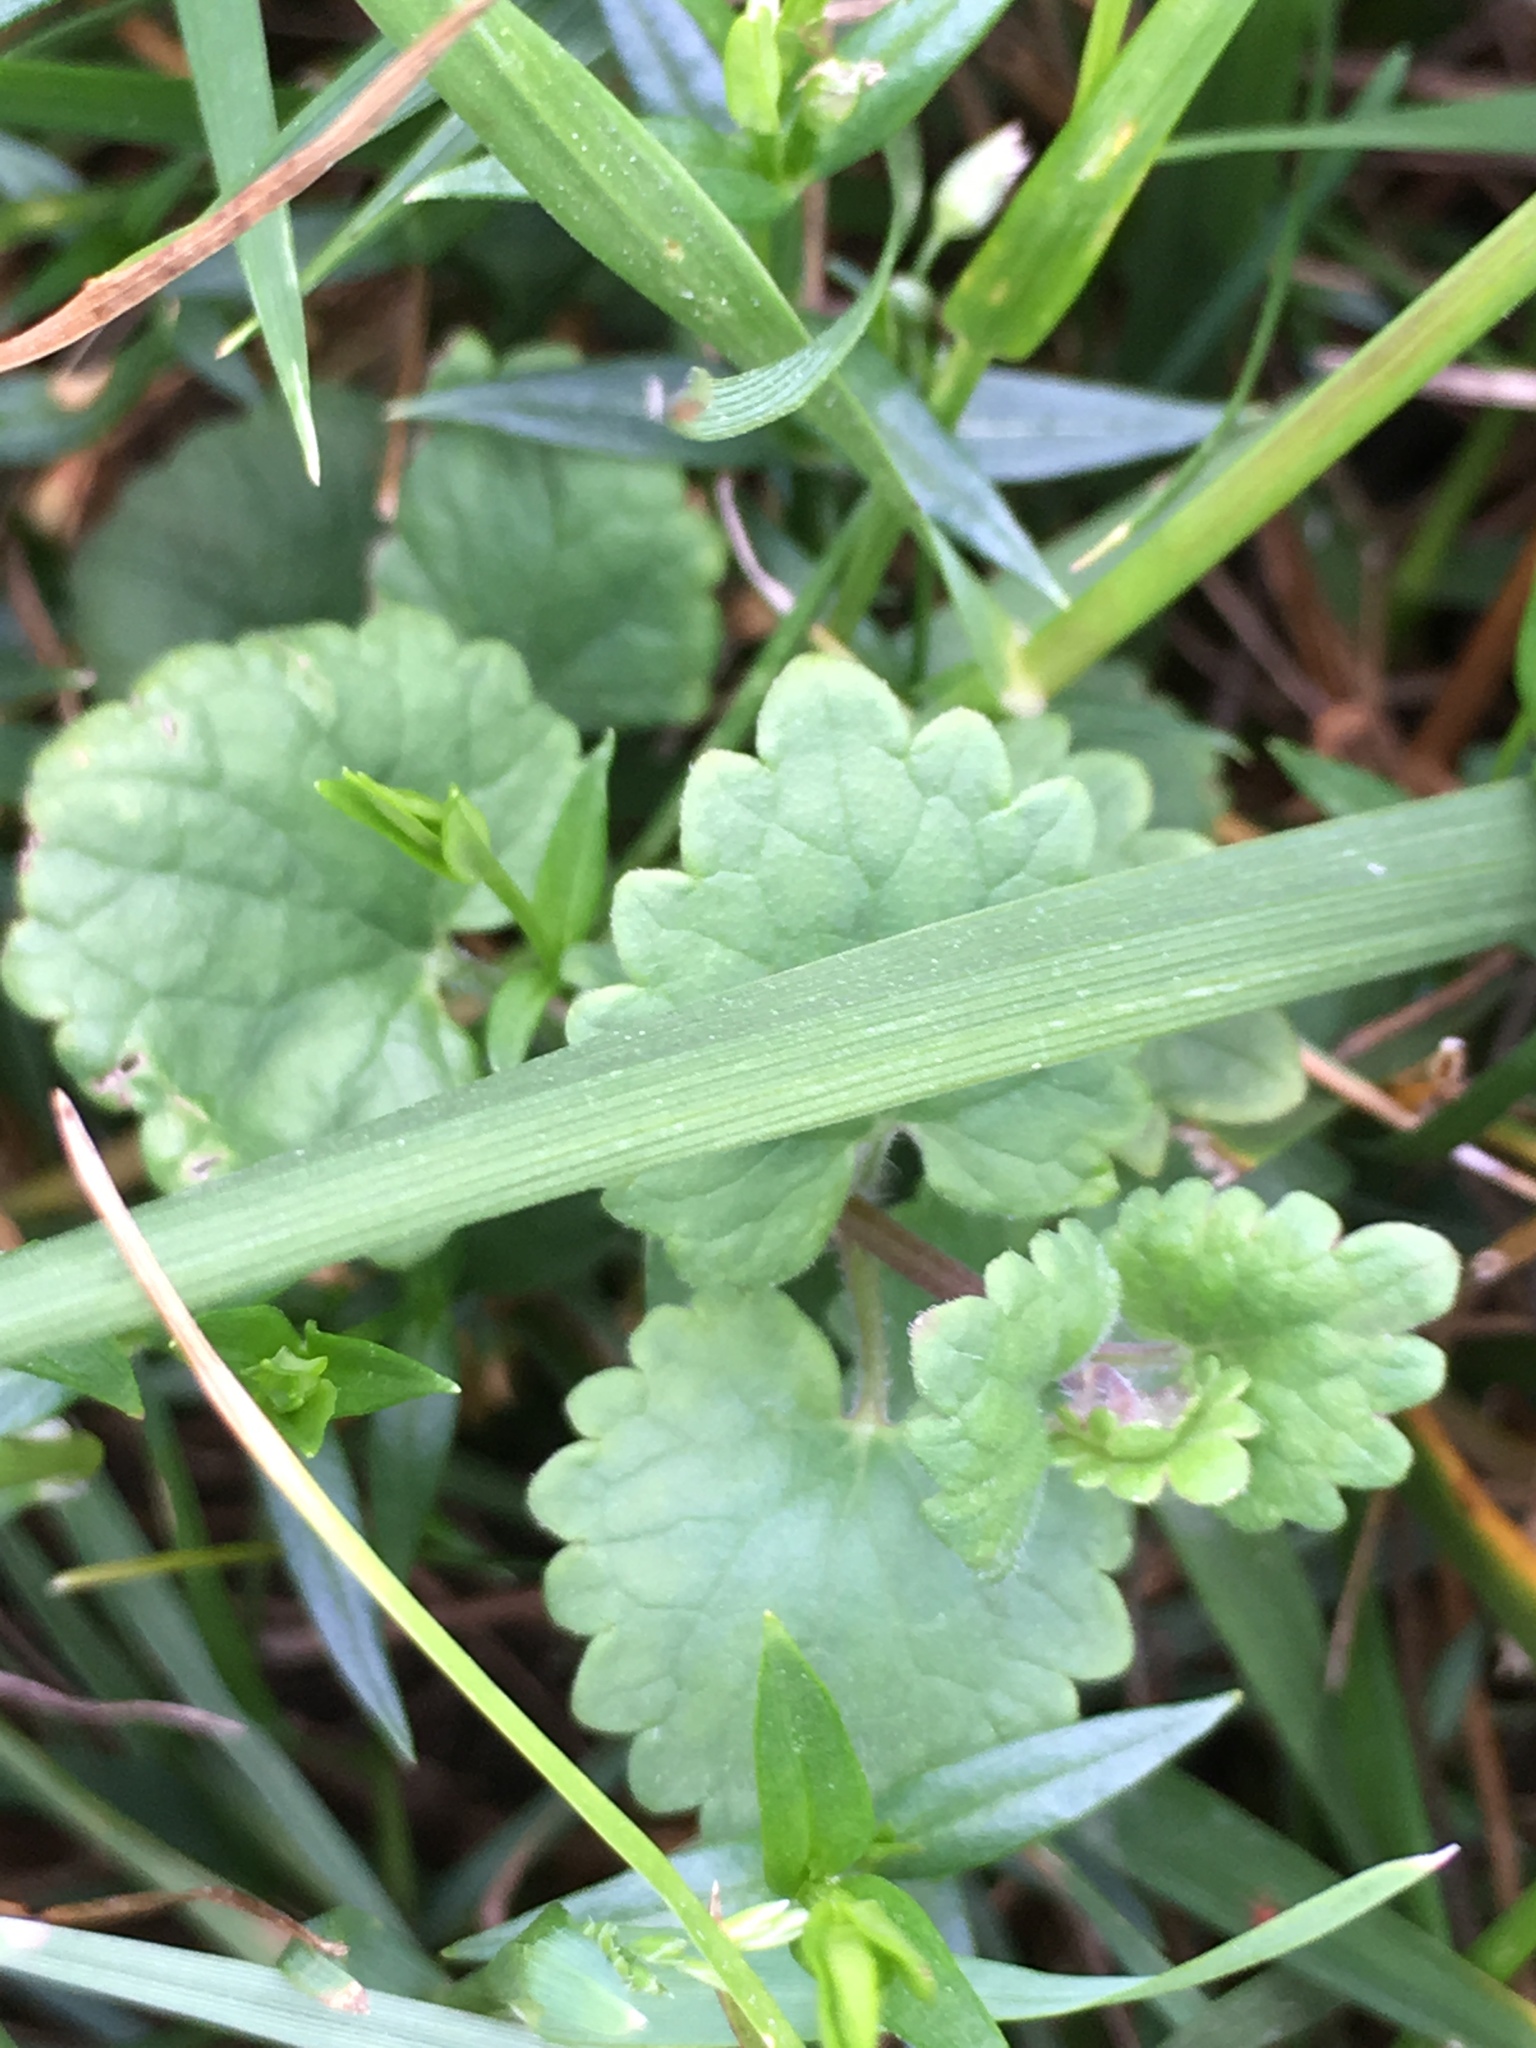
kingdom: Plantae
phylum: Tracheophyta
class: Magnoliopsida
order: Lamiales
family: Lamiaceae
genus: Glechoma
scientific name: Glechoma hederacea
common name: Ground ivy
